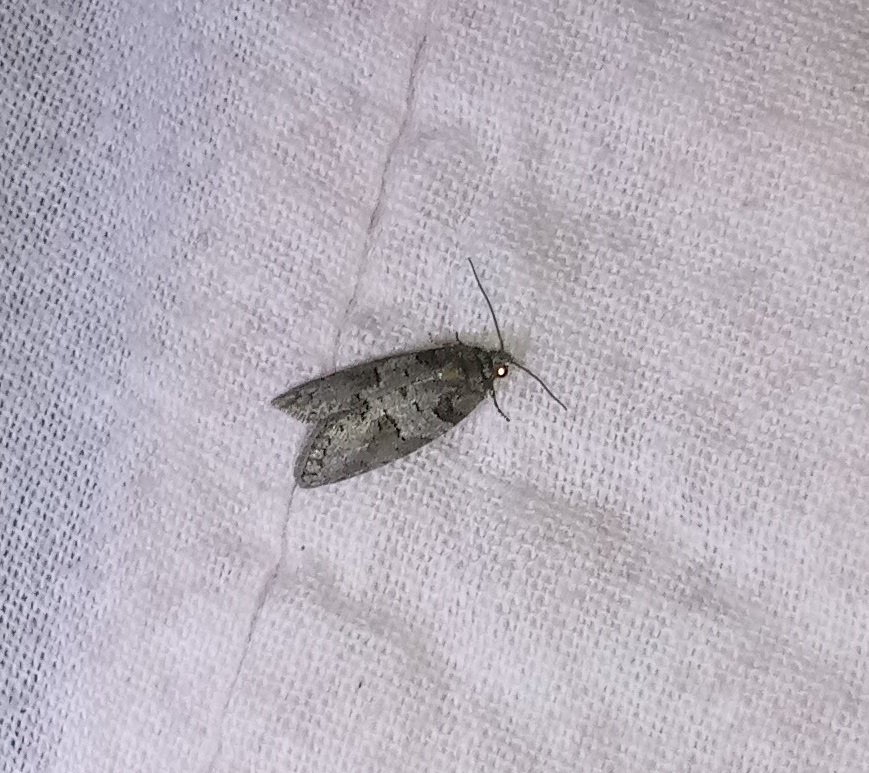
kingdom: Animalia
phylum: Arthropoda
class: Insecta
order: Lepidoptera
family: Tortricidae
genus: Decodes
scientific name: Decodes basiplagana
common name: Gray-marked tortricid
